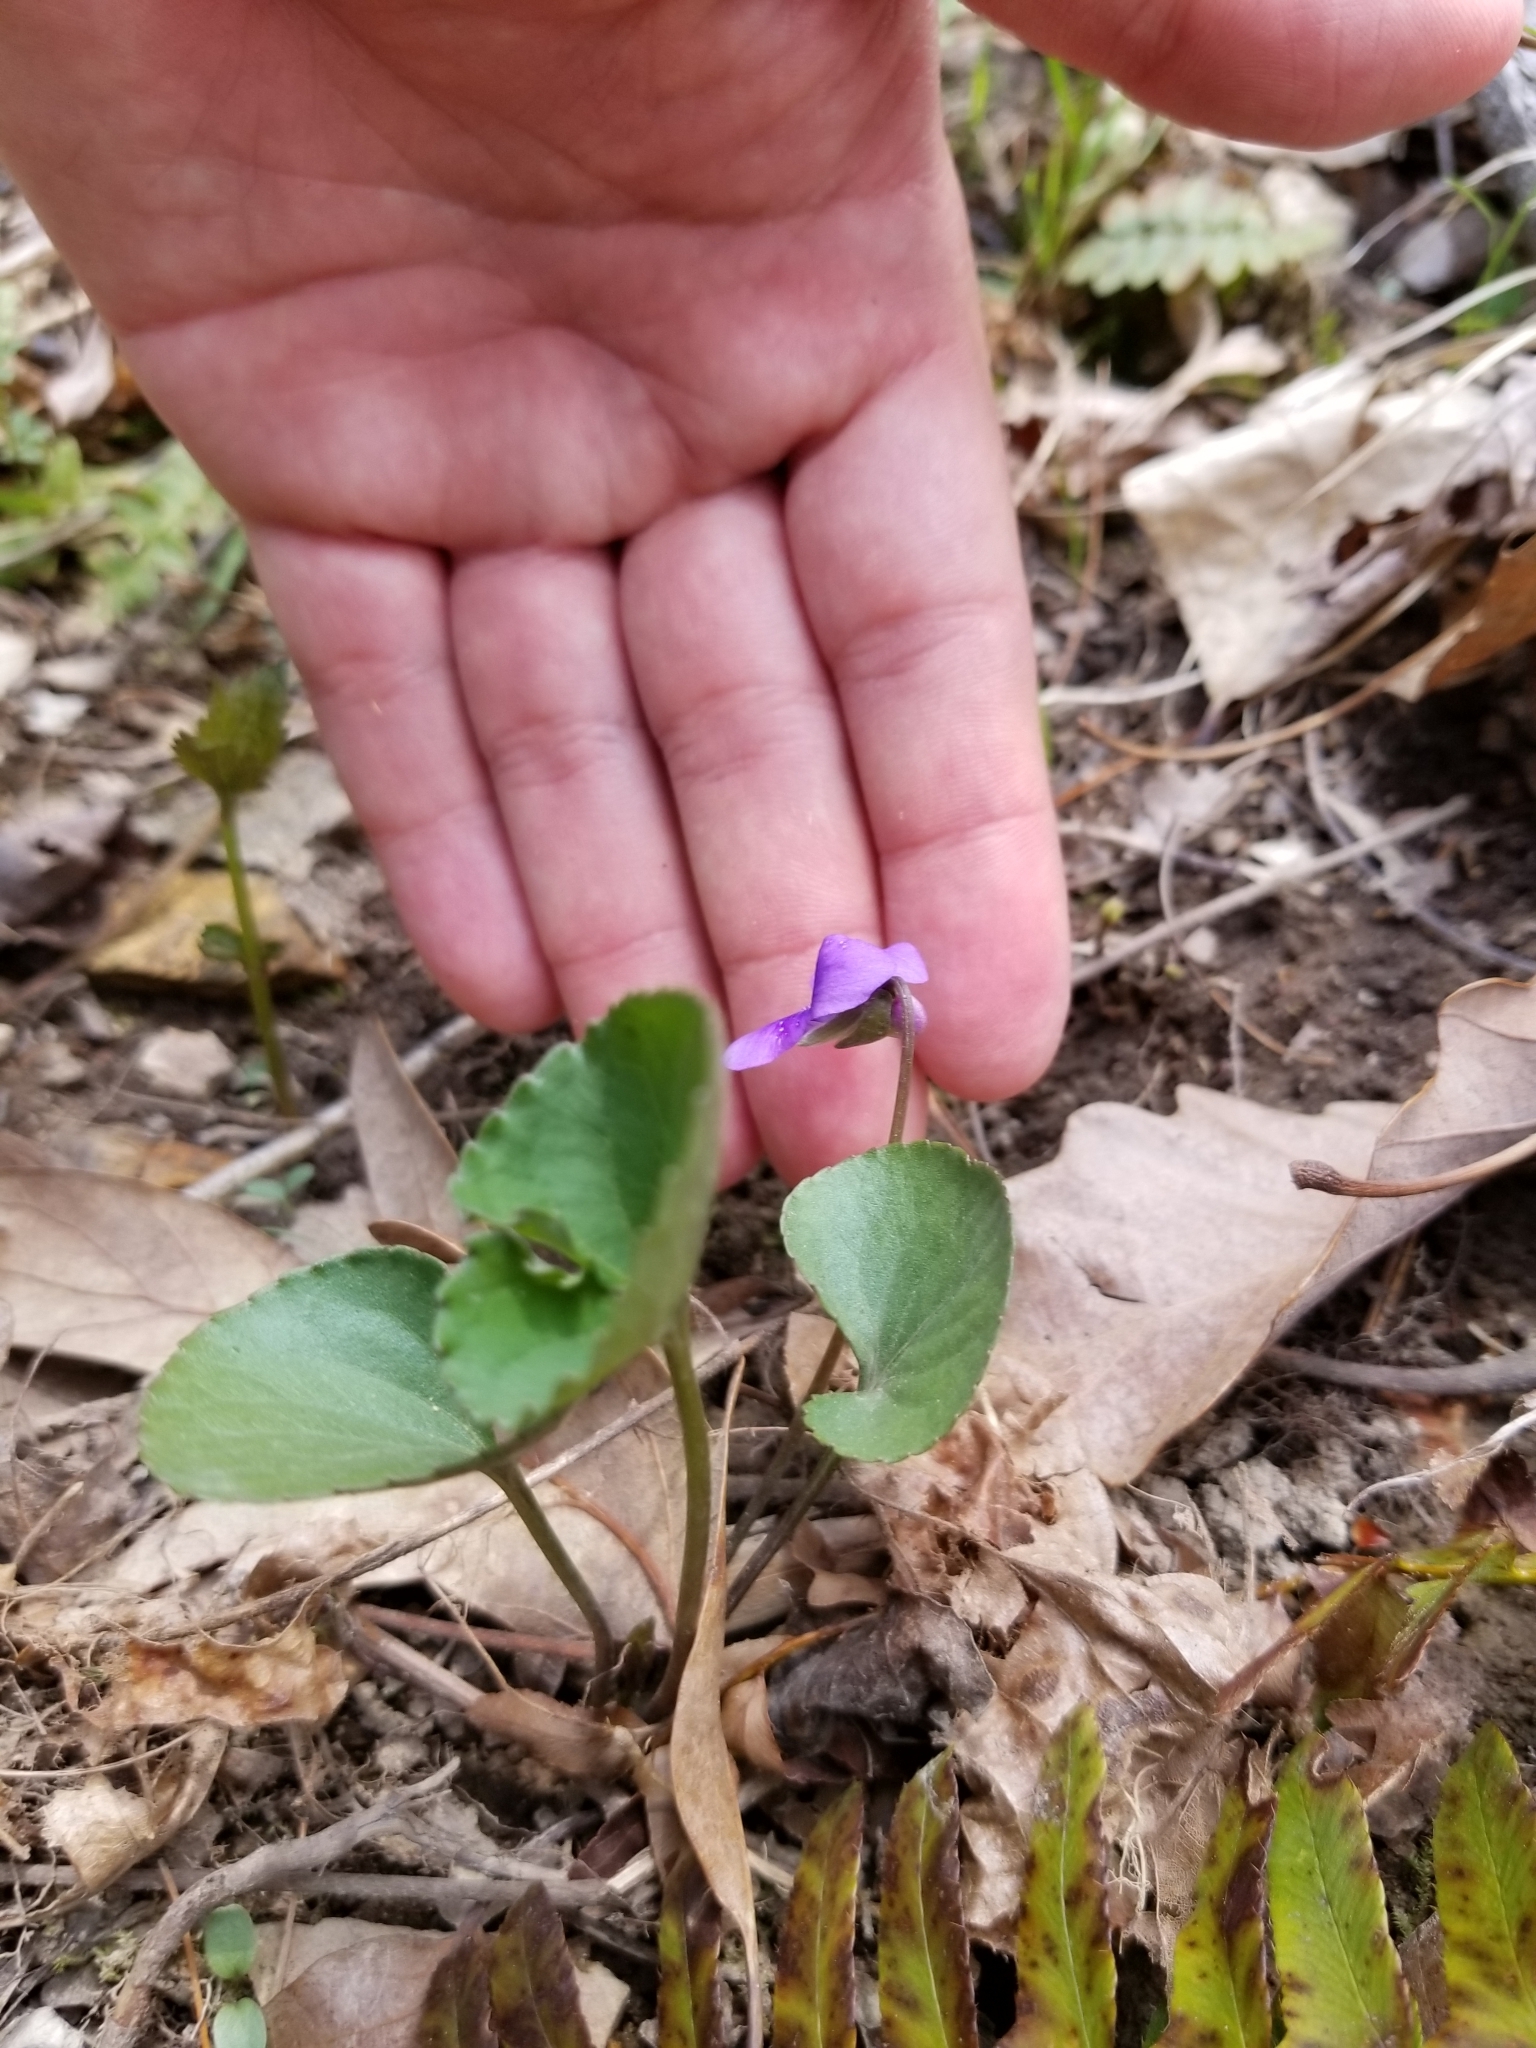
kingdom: Plantae
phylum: Tracheophyta
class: Magnoliopsida
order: Malpighiales
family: Violaceae
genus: Viola
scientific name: Viola sororia
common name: Dooryard violet
